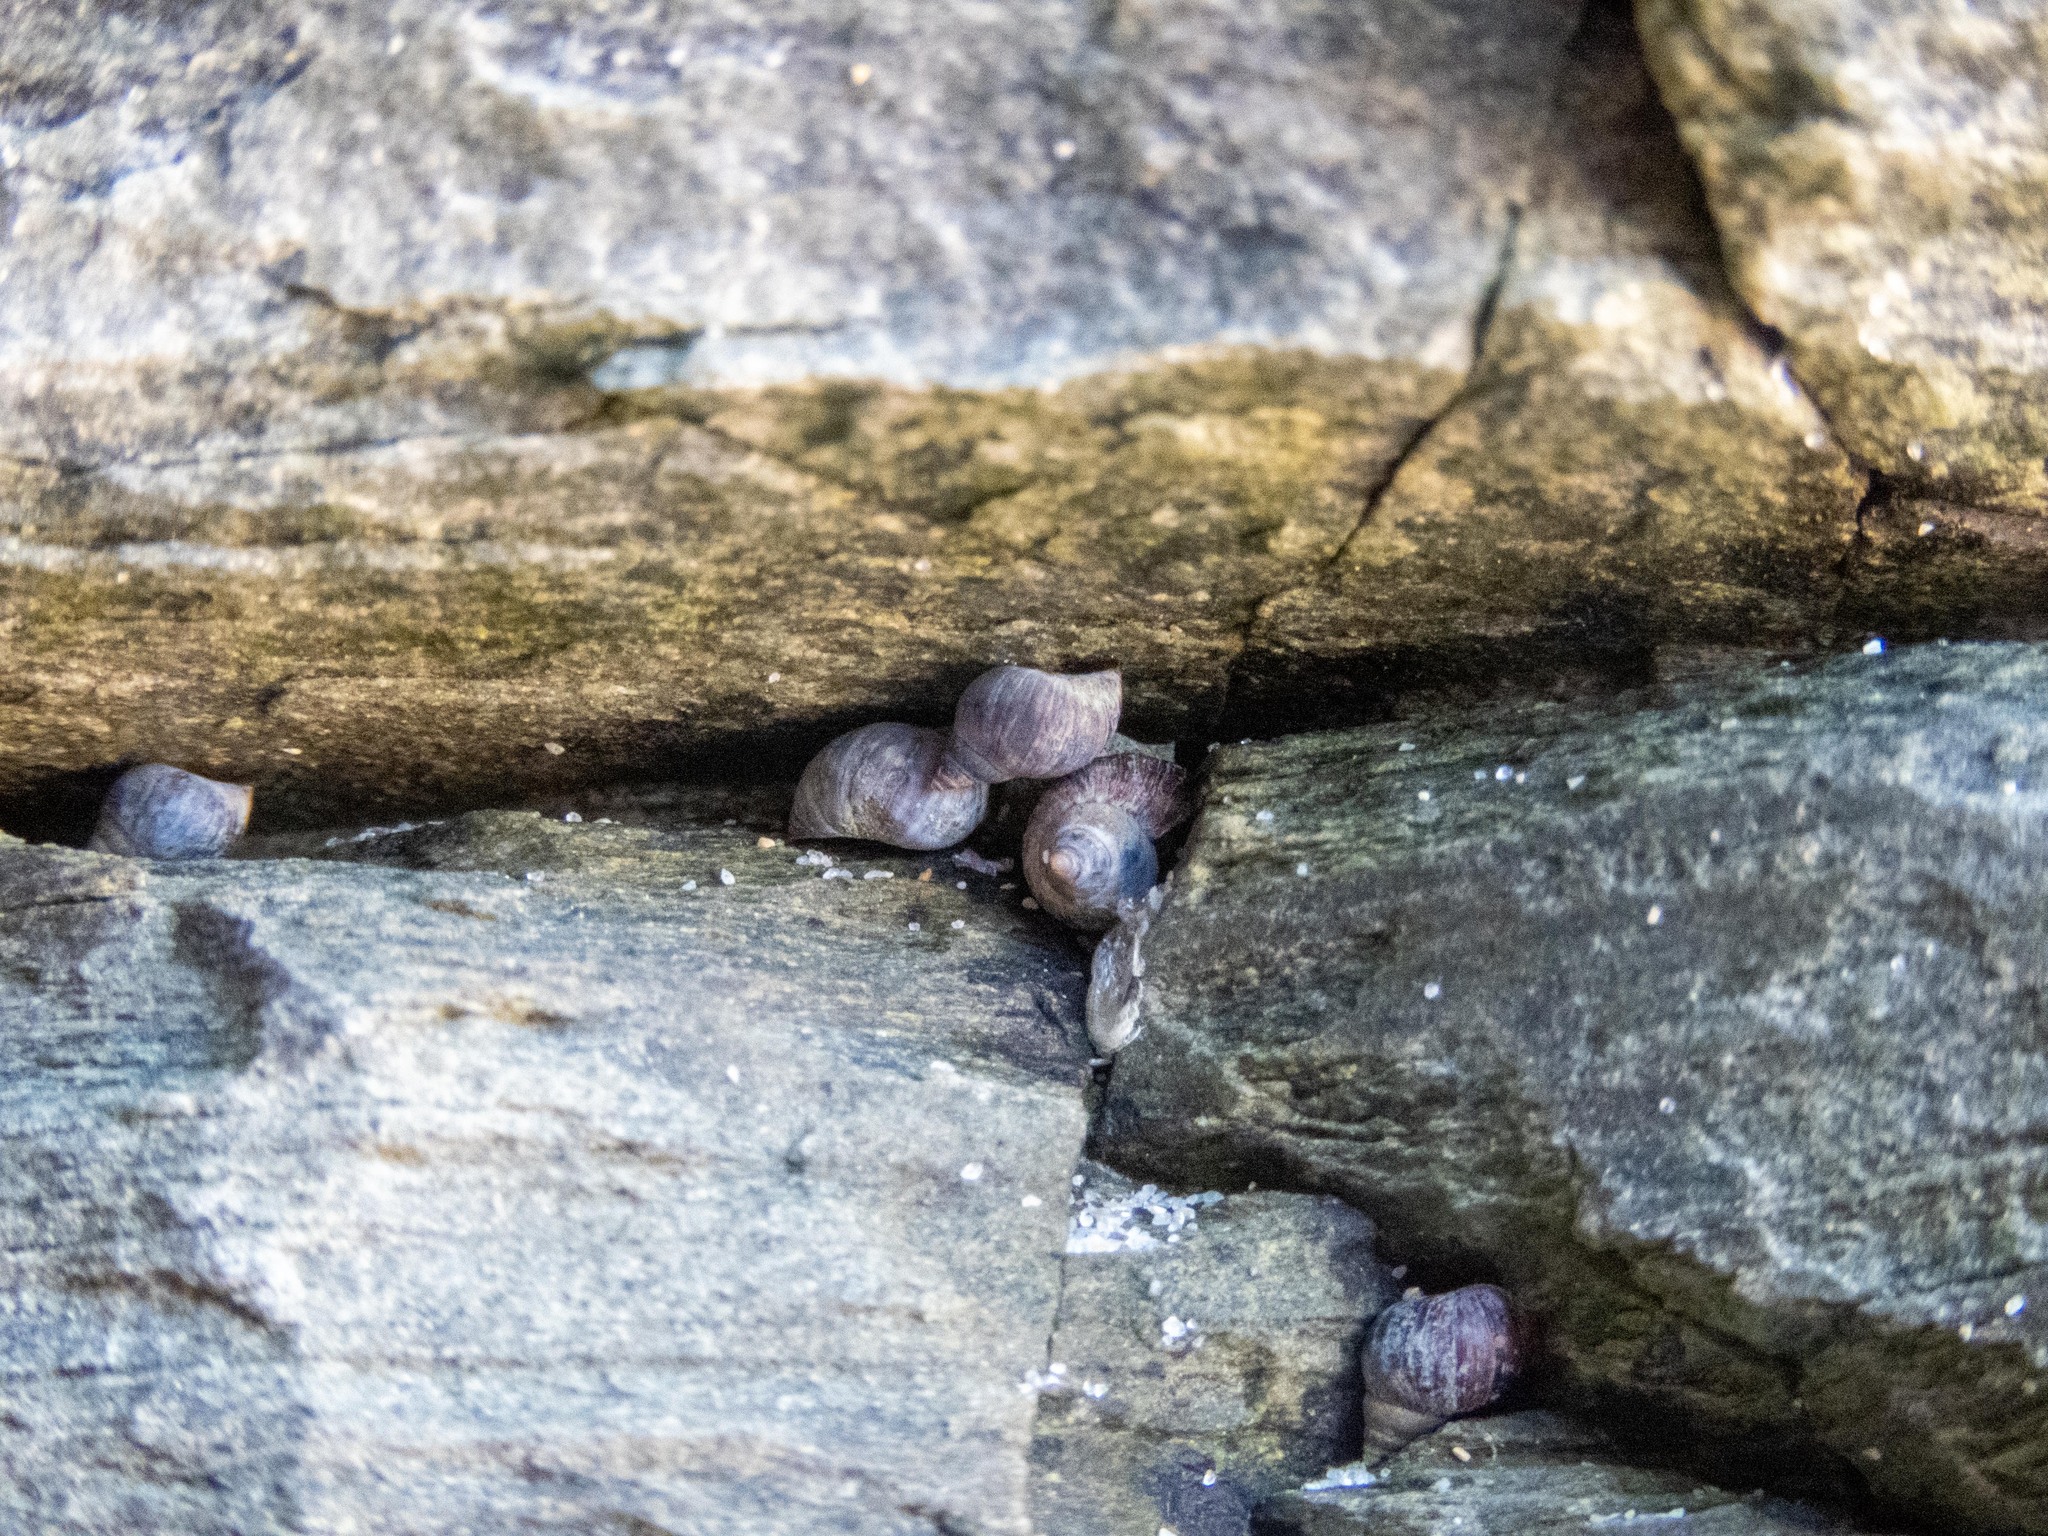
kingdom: Animalia
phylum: Mollusca
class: Gastropoda
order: Littorinimorpha
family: Littorinidae
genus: Melarhaphe
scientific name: Melarhaphe neritoides
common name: Small periwinkle
